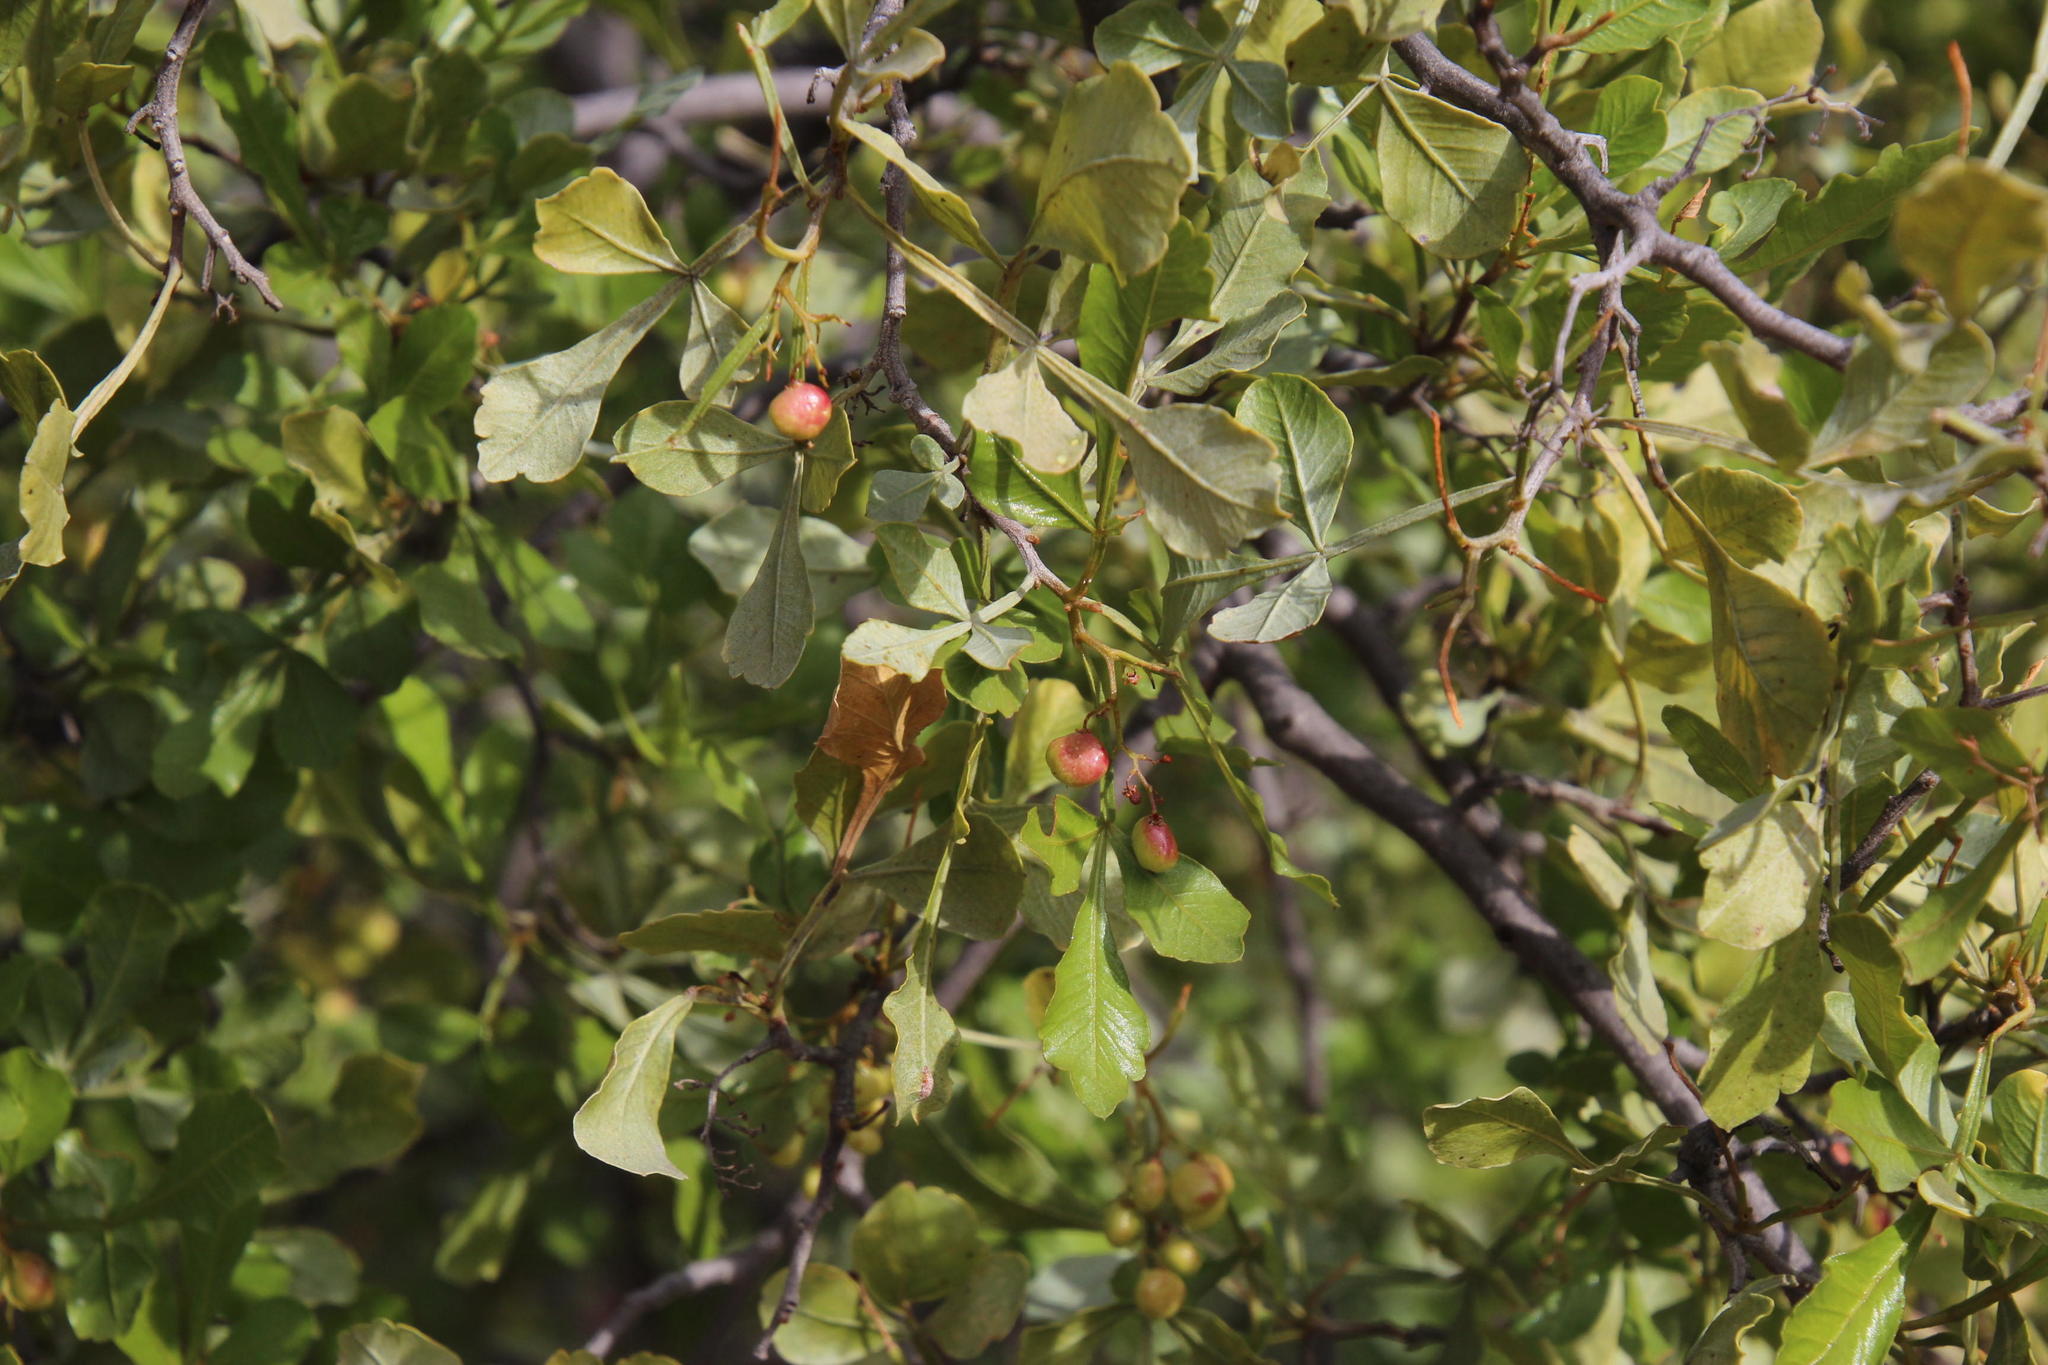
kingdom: Animalia
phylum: Arthropoda
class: Insecta
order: Lepidoptera
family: Lasiocampidae
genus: Bombycomorpha
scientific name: Bombycomorpha dukei
